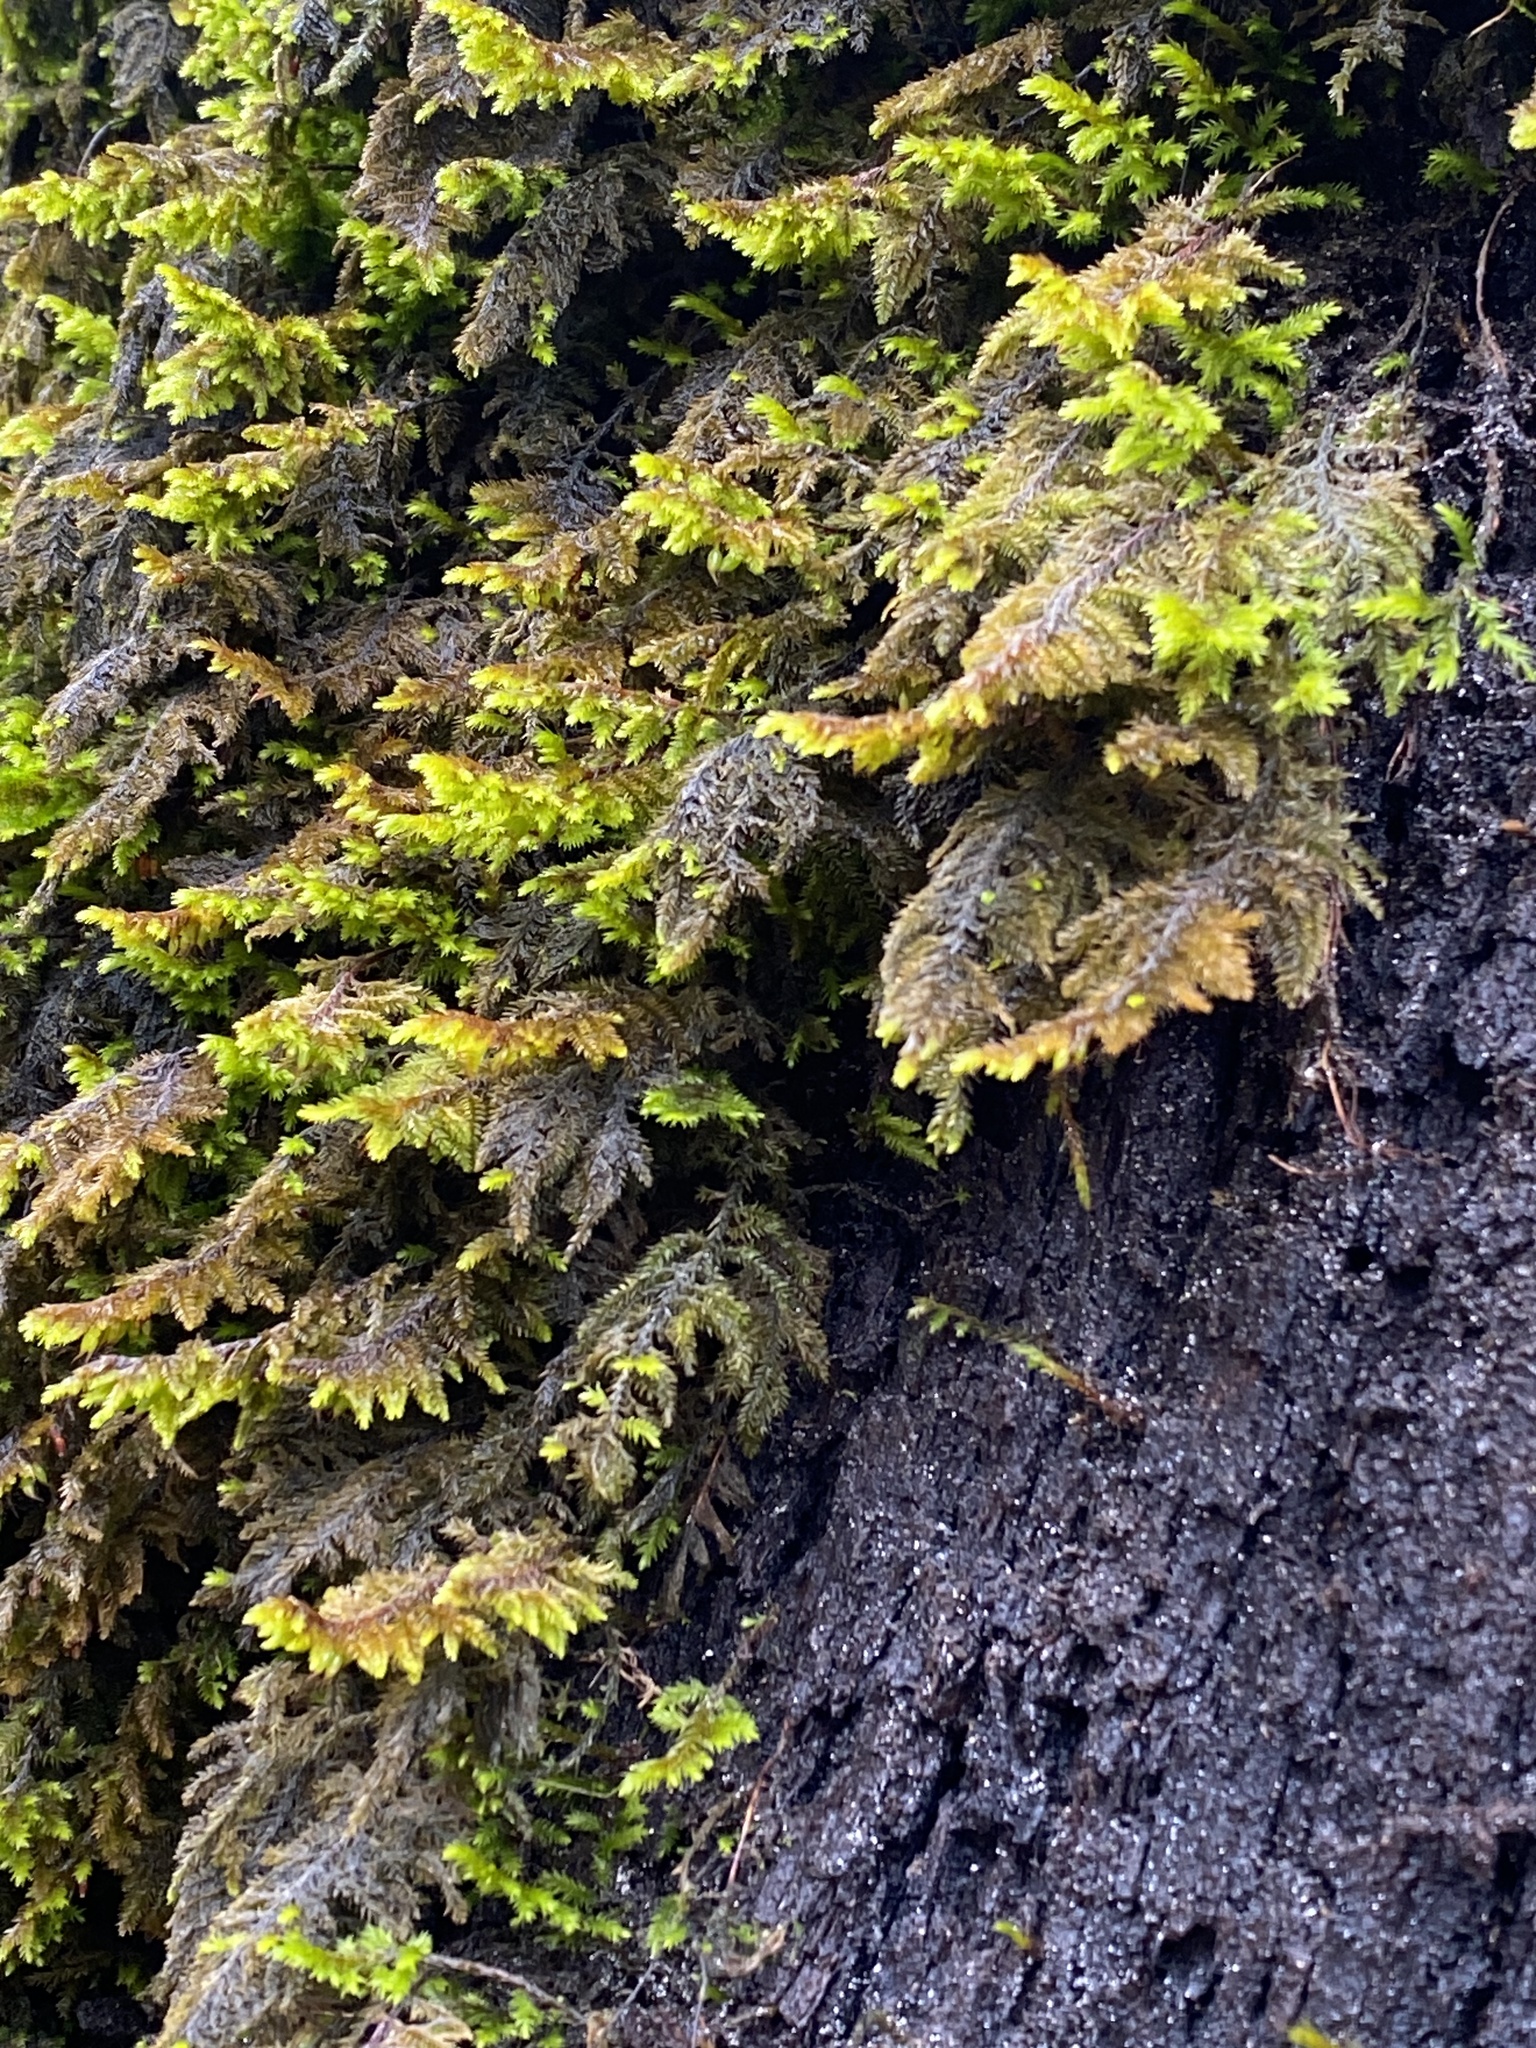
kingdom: Plantae
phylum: Bryophyta
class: Bryopsida
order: Hypnales
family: Cryphaeaceae
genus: Dendroalsia
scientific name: Dendroalsia abietina
